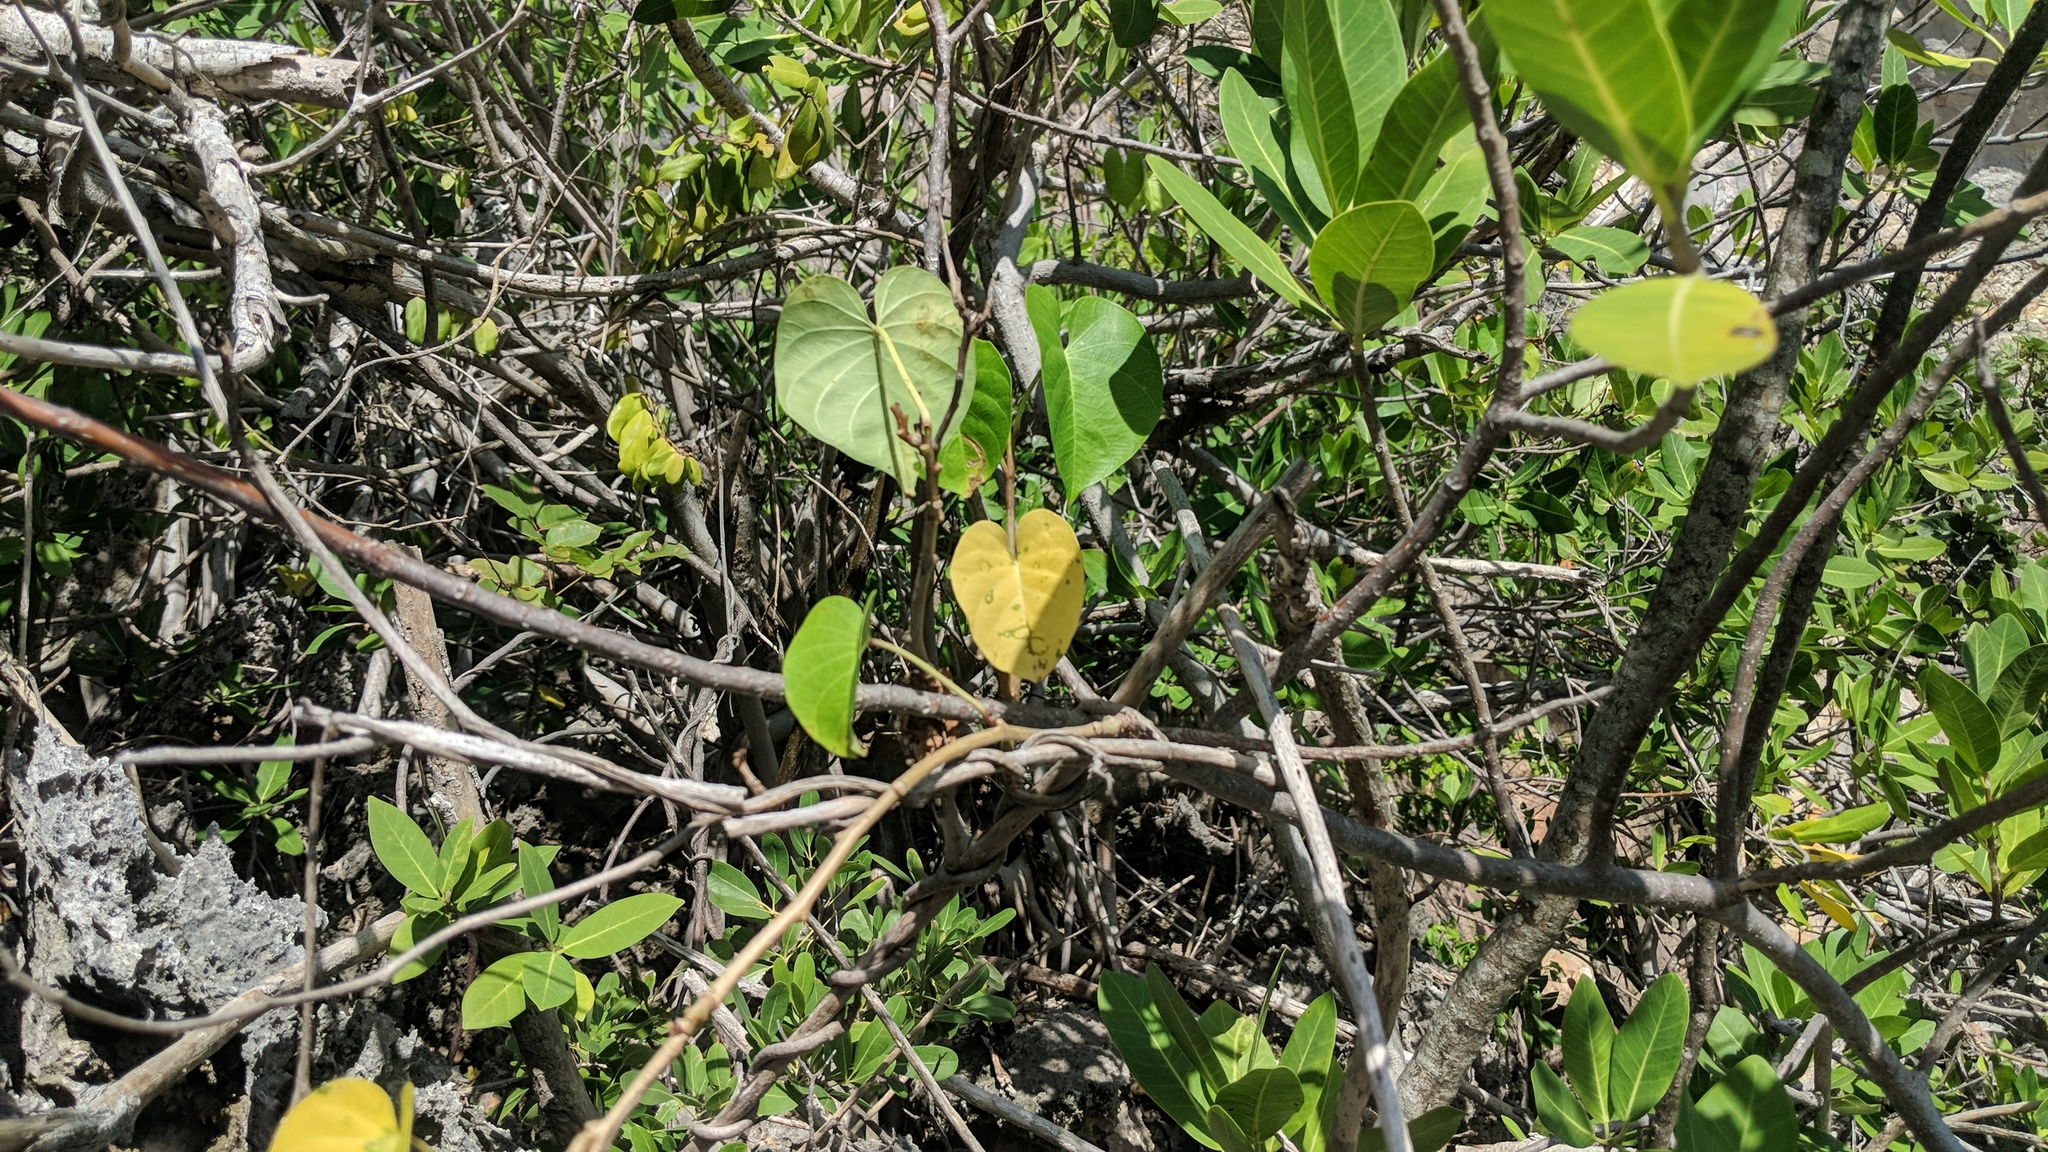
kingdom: Plantae
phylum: Tracheophyta
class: Magnoliopsida
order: Solanales
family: Convolvulaceae
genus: Ipomoea
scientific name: Ipomoea violacea
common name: Beach moonflower
